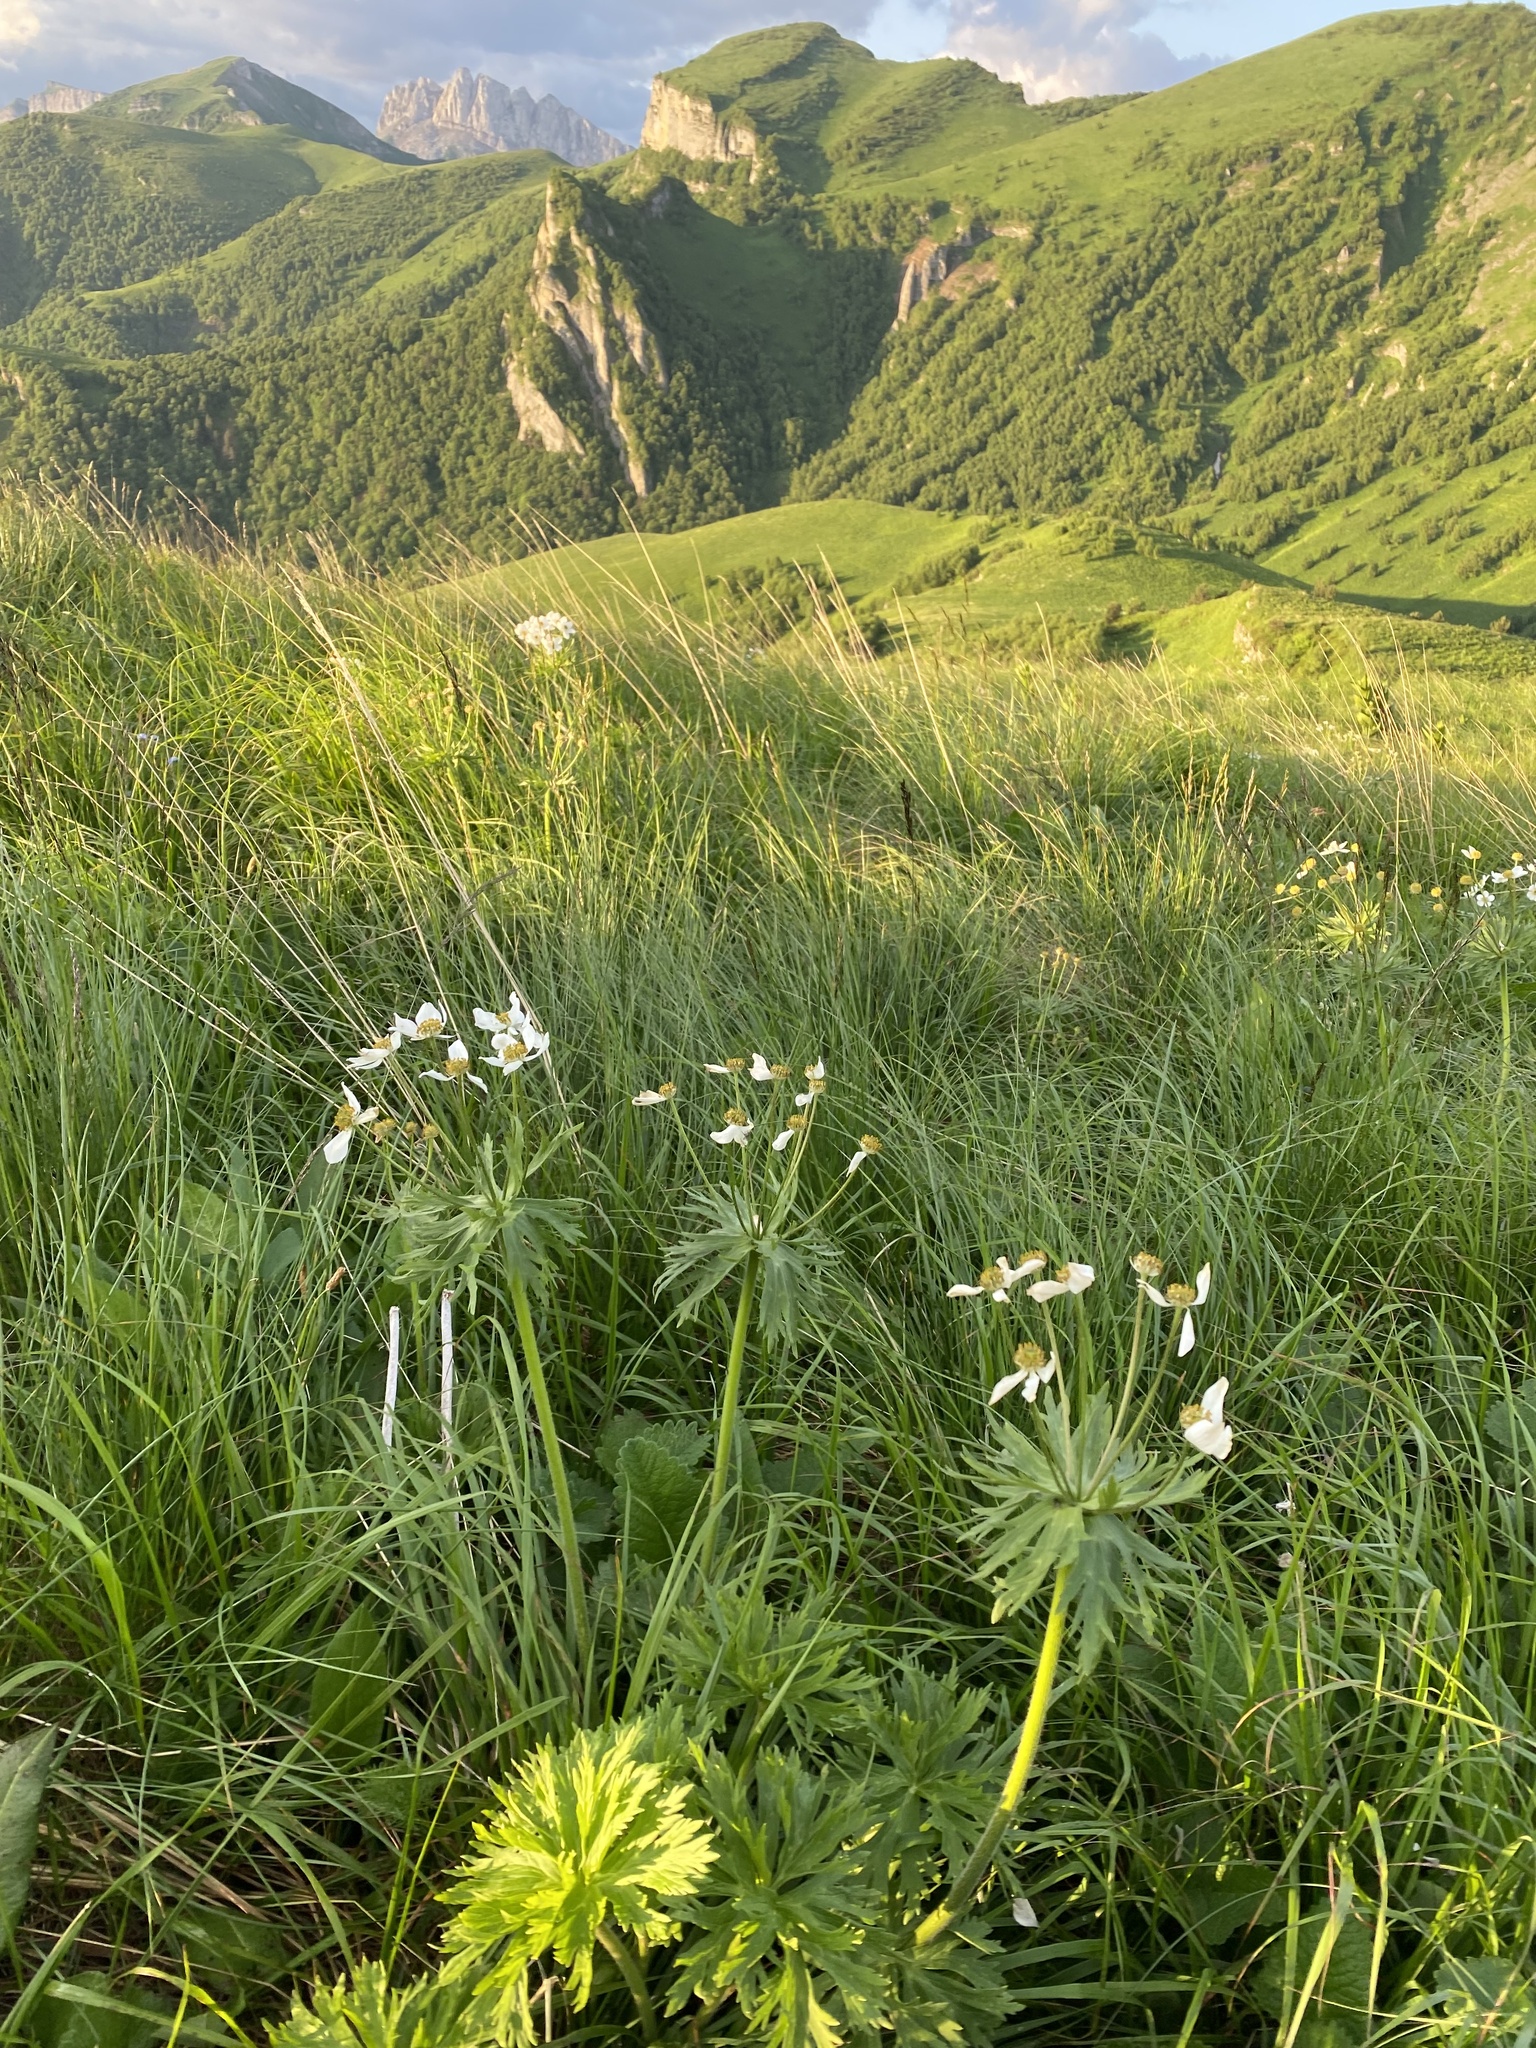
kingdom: Plantae
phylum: Tracheophyta
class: Magnoliopsida
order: Ranunculales
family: Ranunculaceae
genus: Anemonastrum
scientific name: Anemonastrum narcissiflorum
